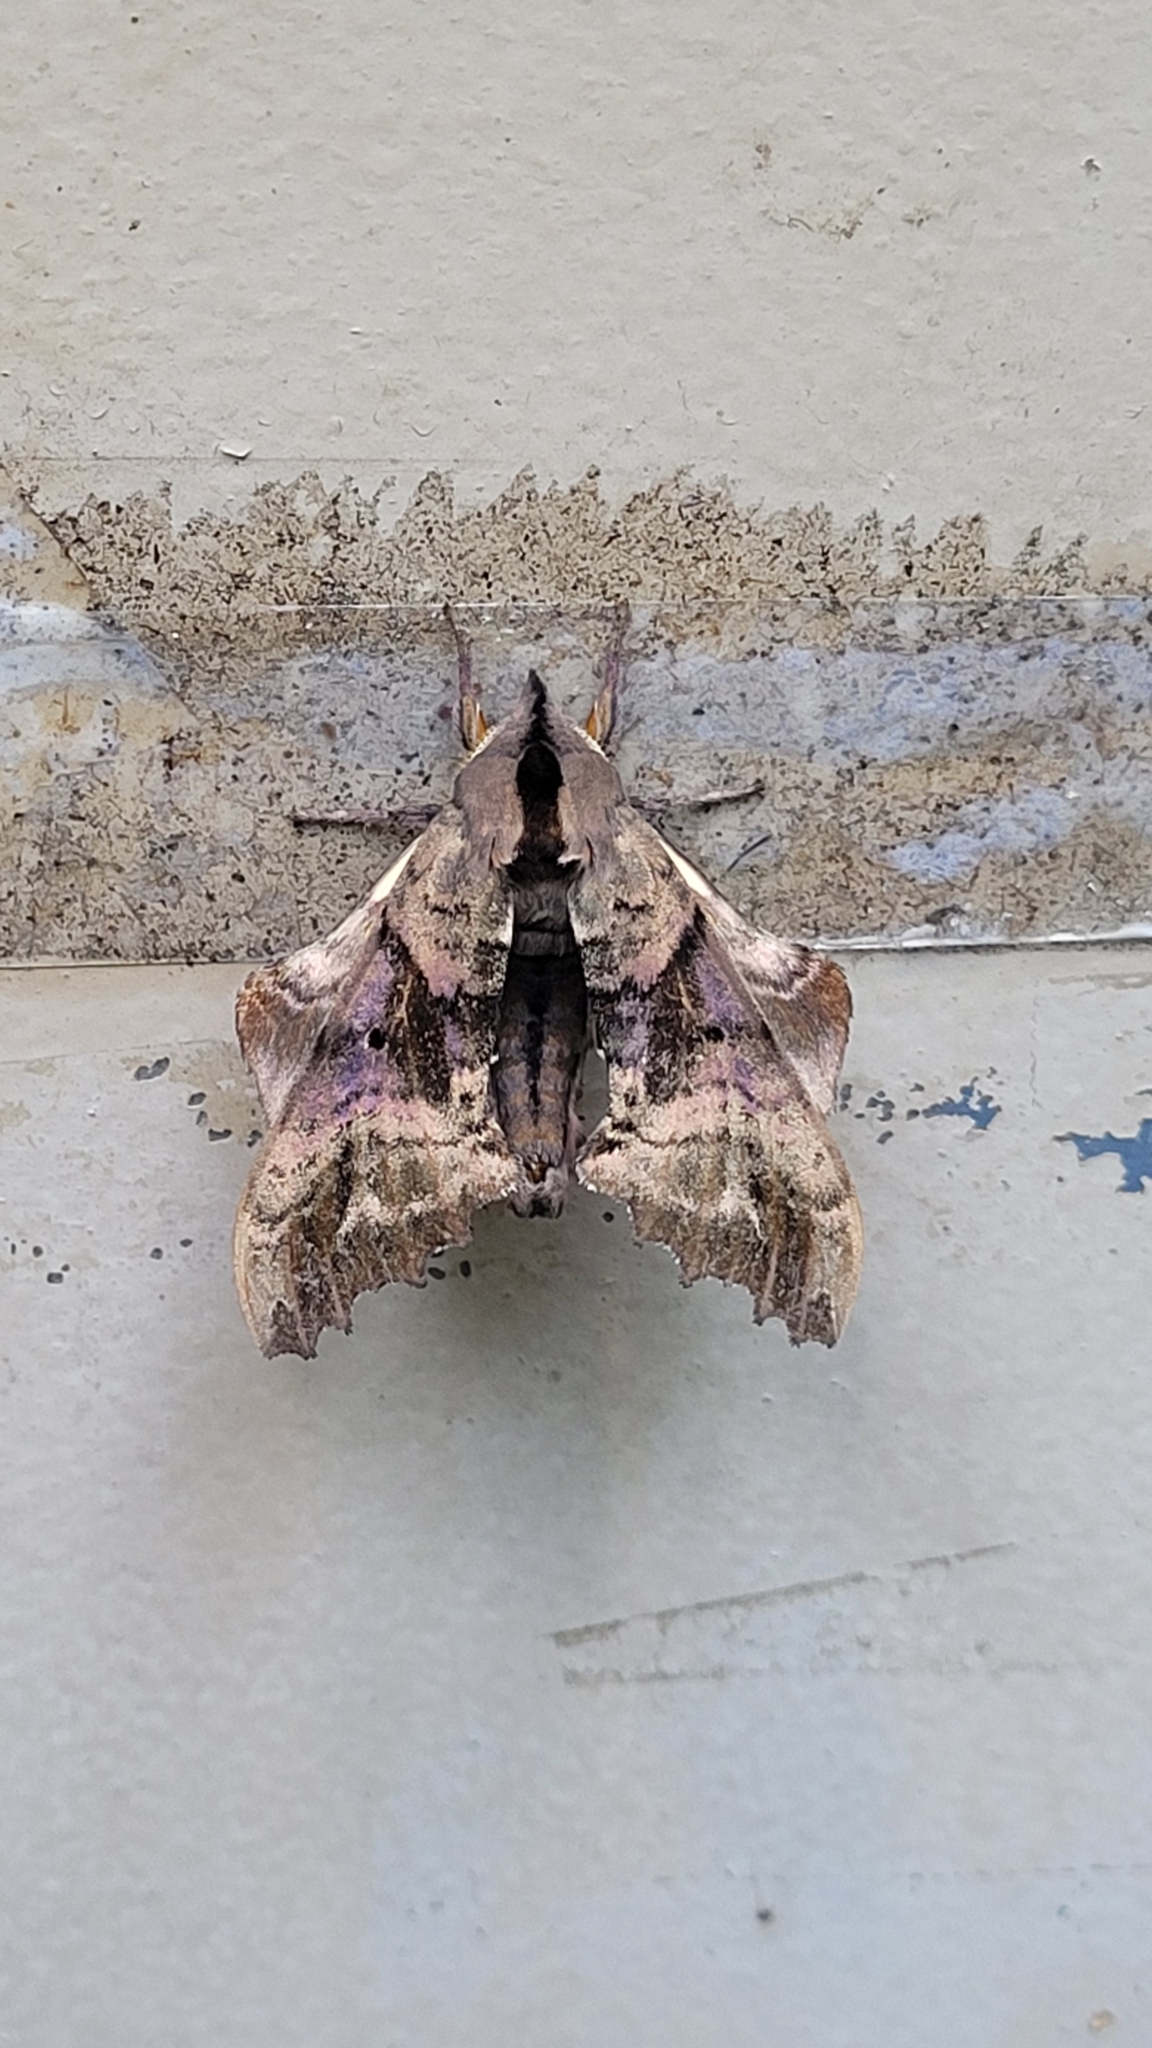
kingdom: Animalia
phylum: Arthropoda
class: Insecta
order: Lepidoptera
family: Sphingidae
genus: Paonias
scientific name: Paonias excaecata
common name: Blind-eyed sphinx
